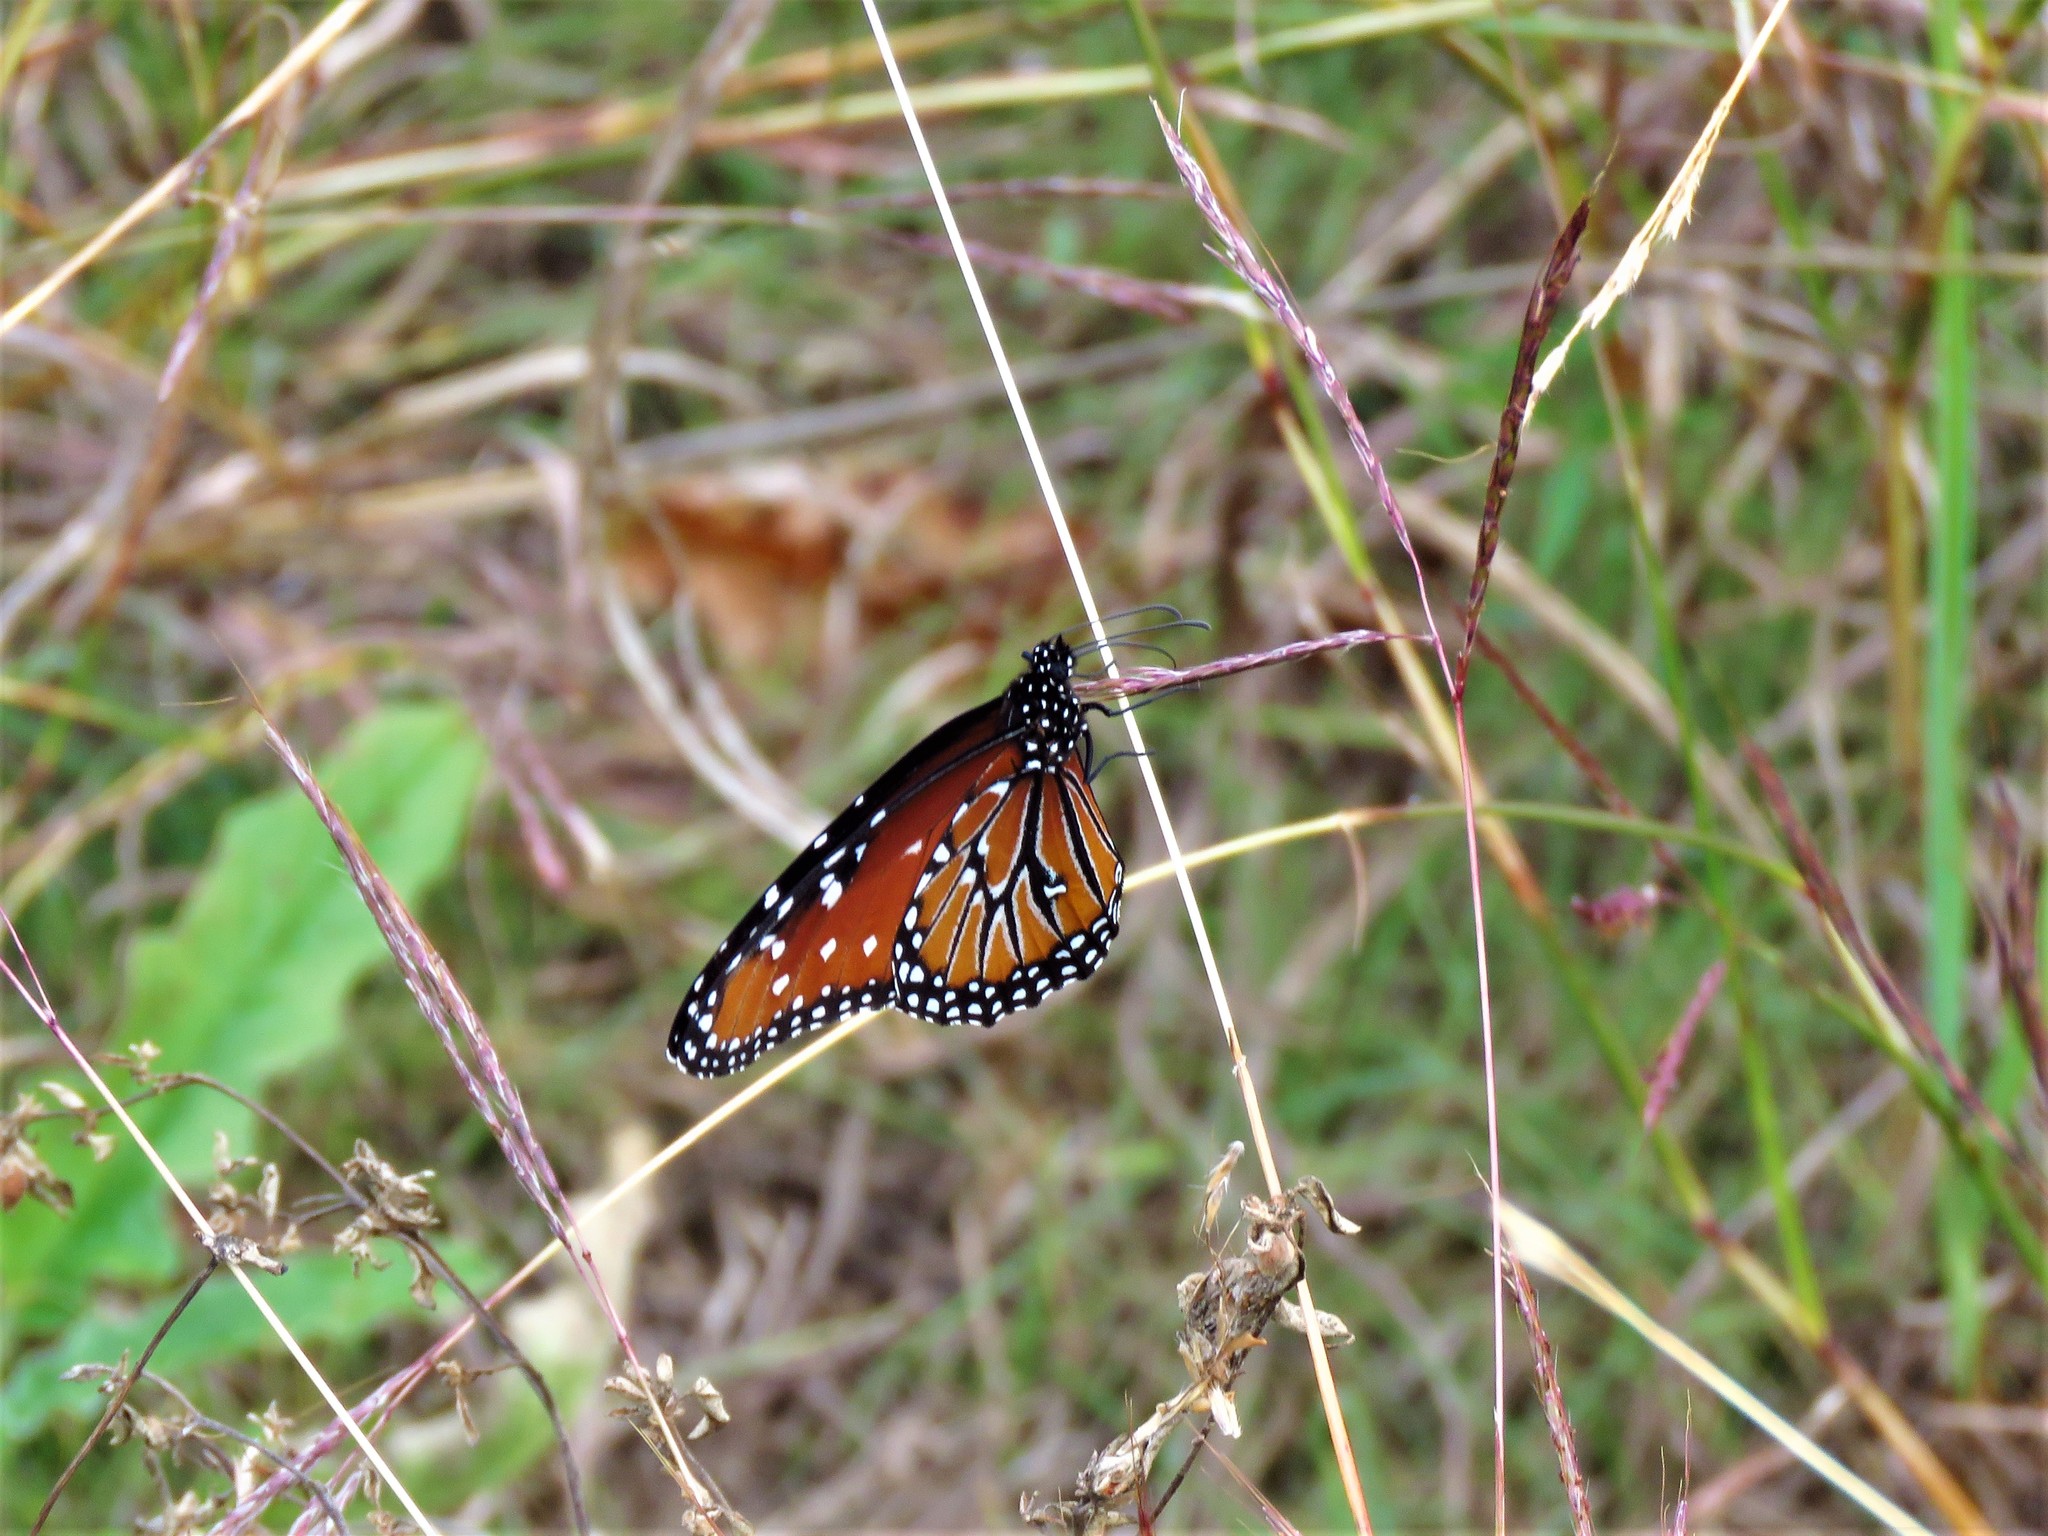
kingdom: Animalia
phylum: Arthropoda
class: Insecta
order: Lepidoptera
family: Nymphalidae
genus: Danaus
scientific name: Danaus gilippus
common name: Queen
